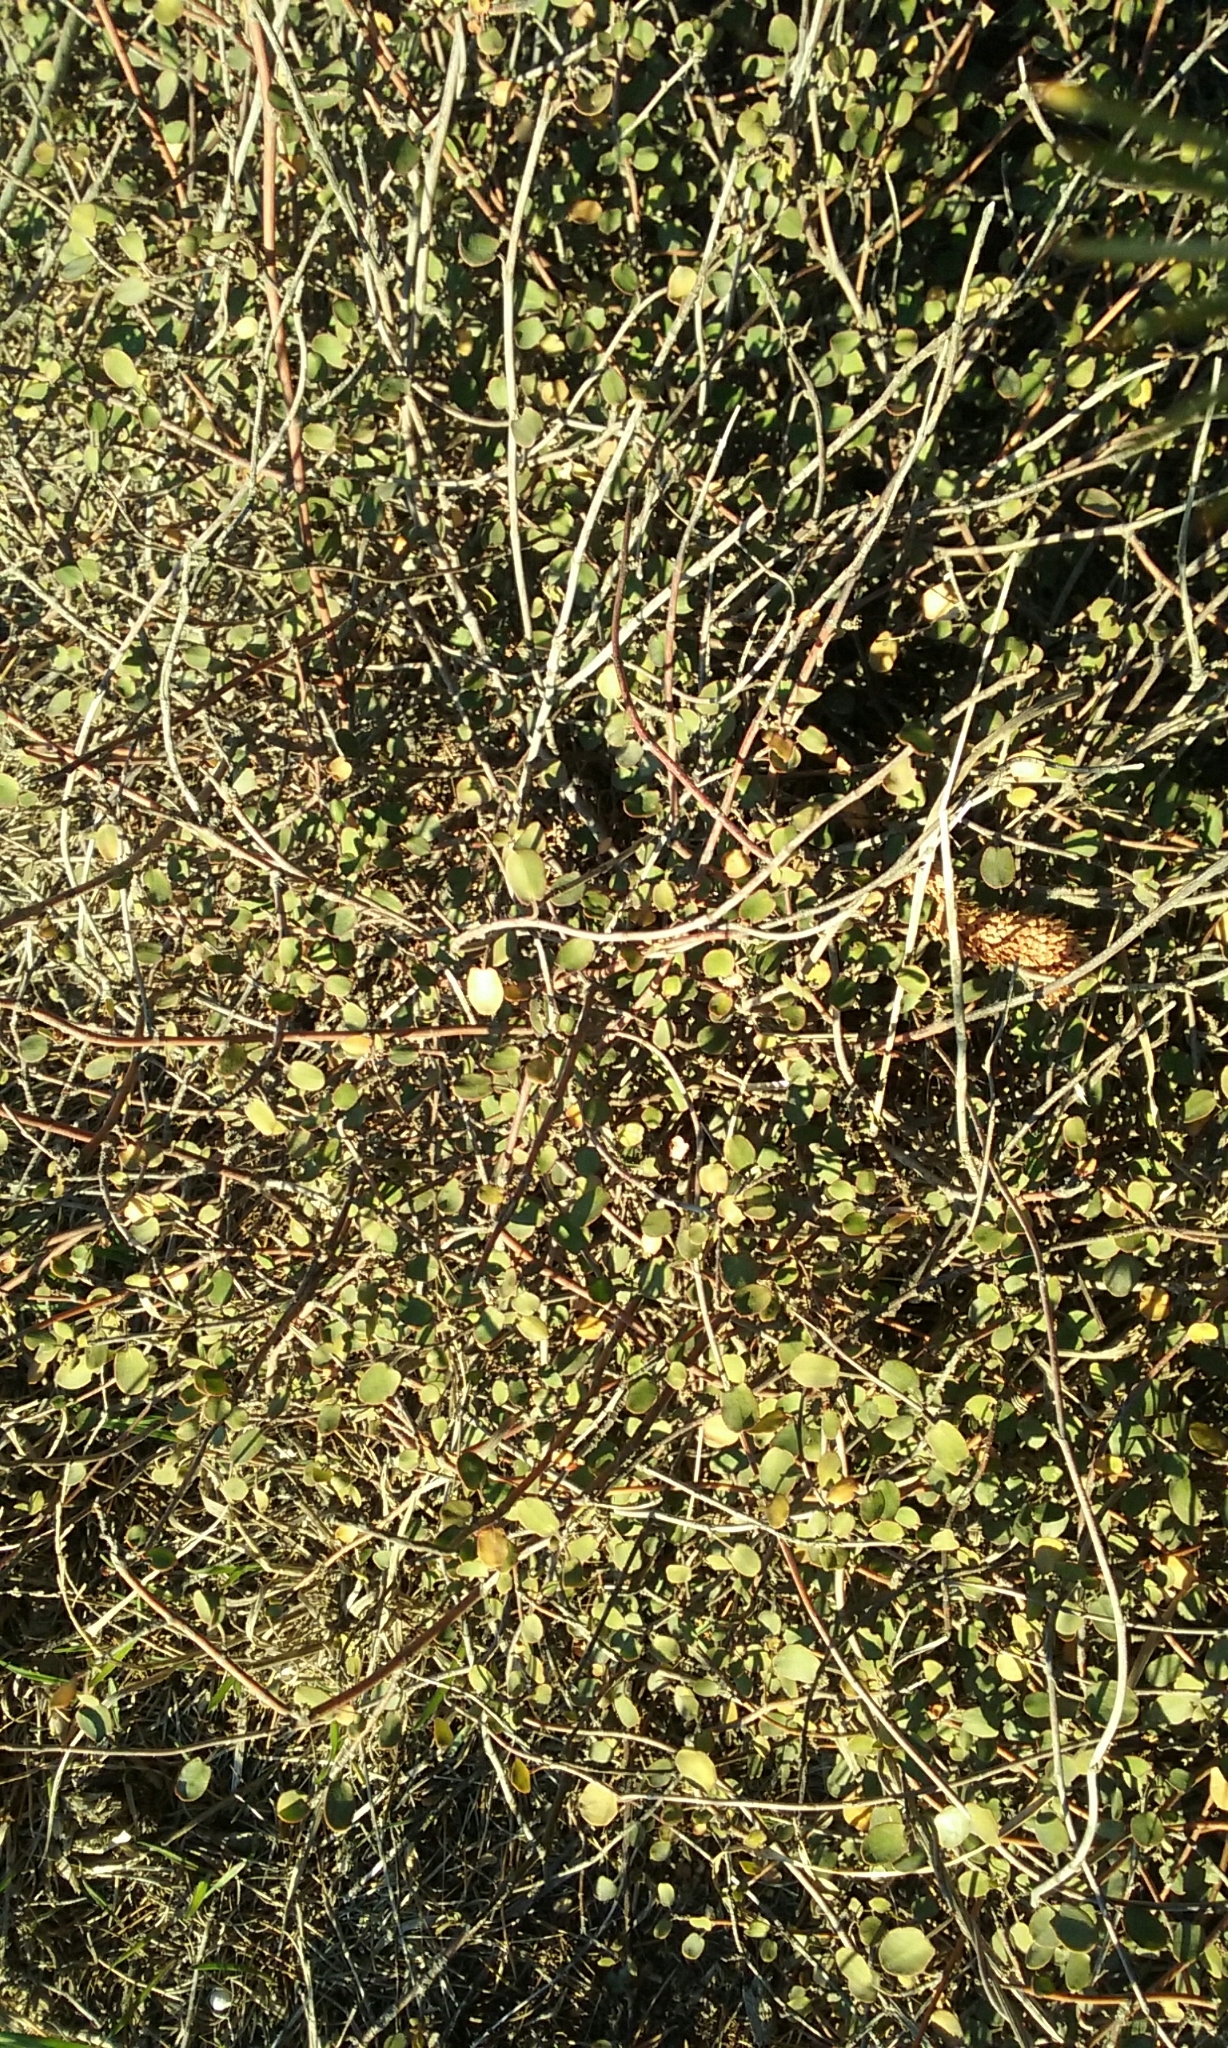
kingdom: Plantae
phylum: Tracheophyta
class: Magnoliopsida
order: Caryophyllales
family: Polygonaceae
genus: Muehlenbeckia
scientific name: Muehlenbeckia complexa
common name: Wireplant
